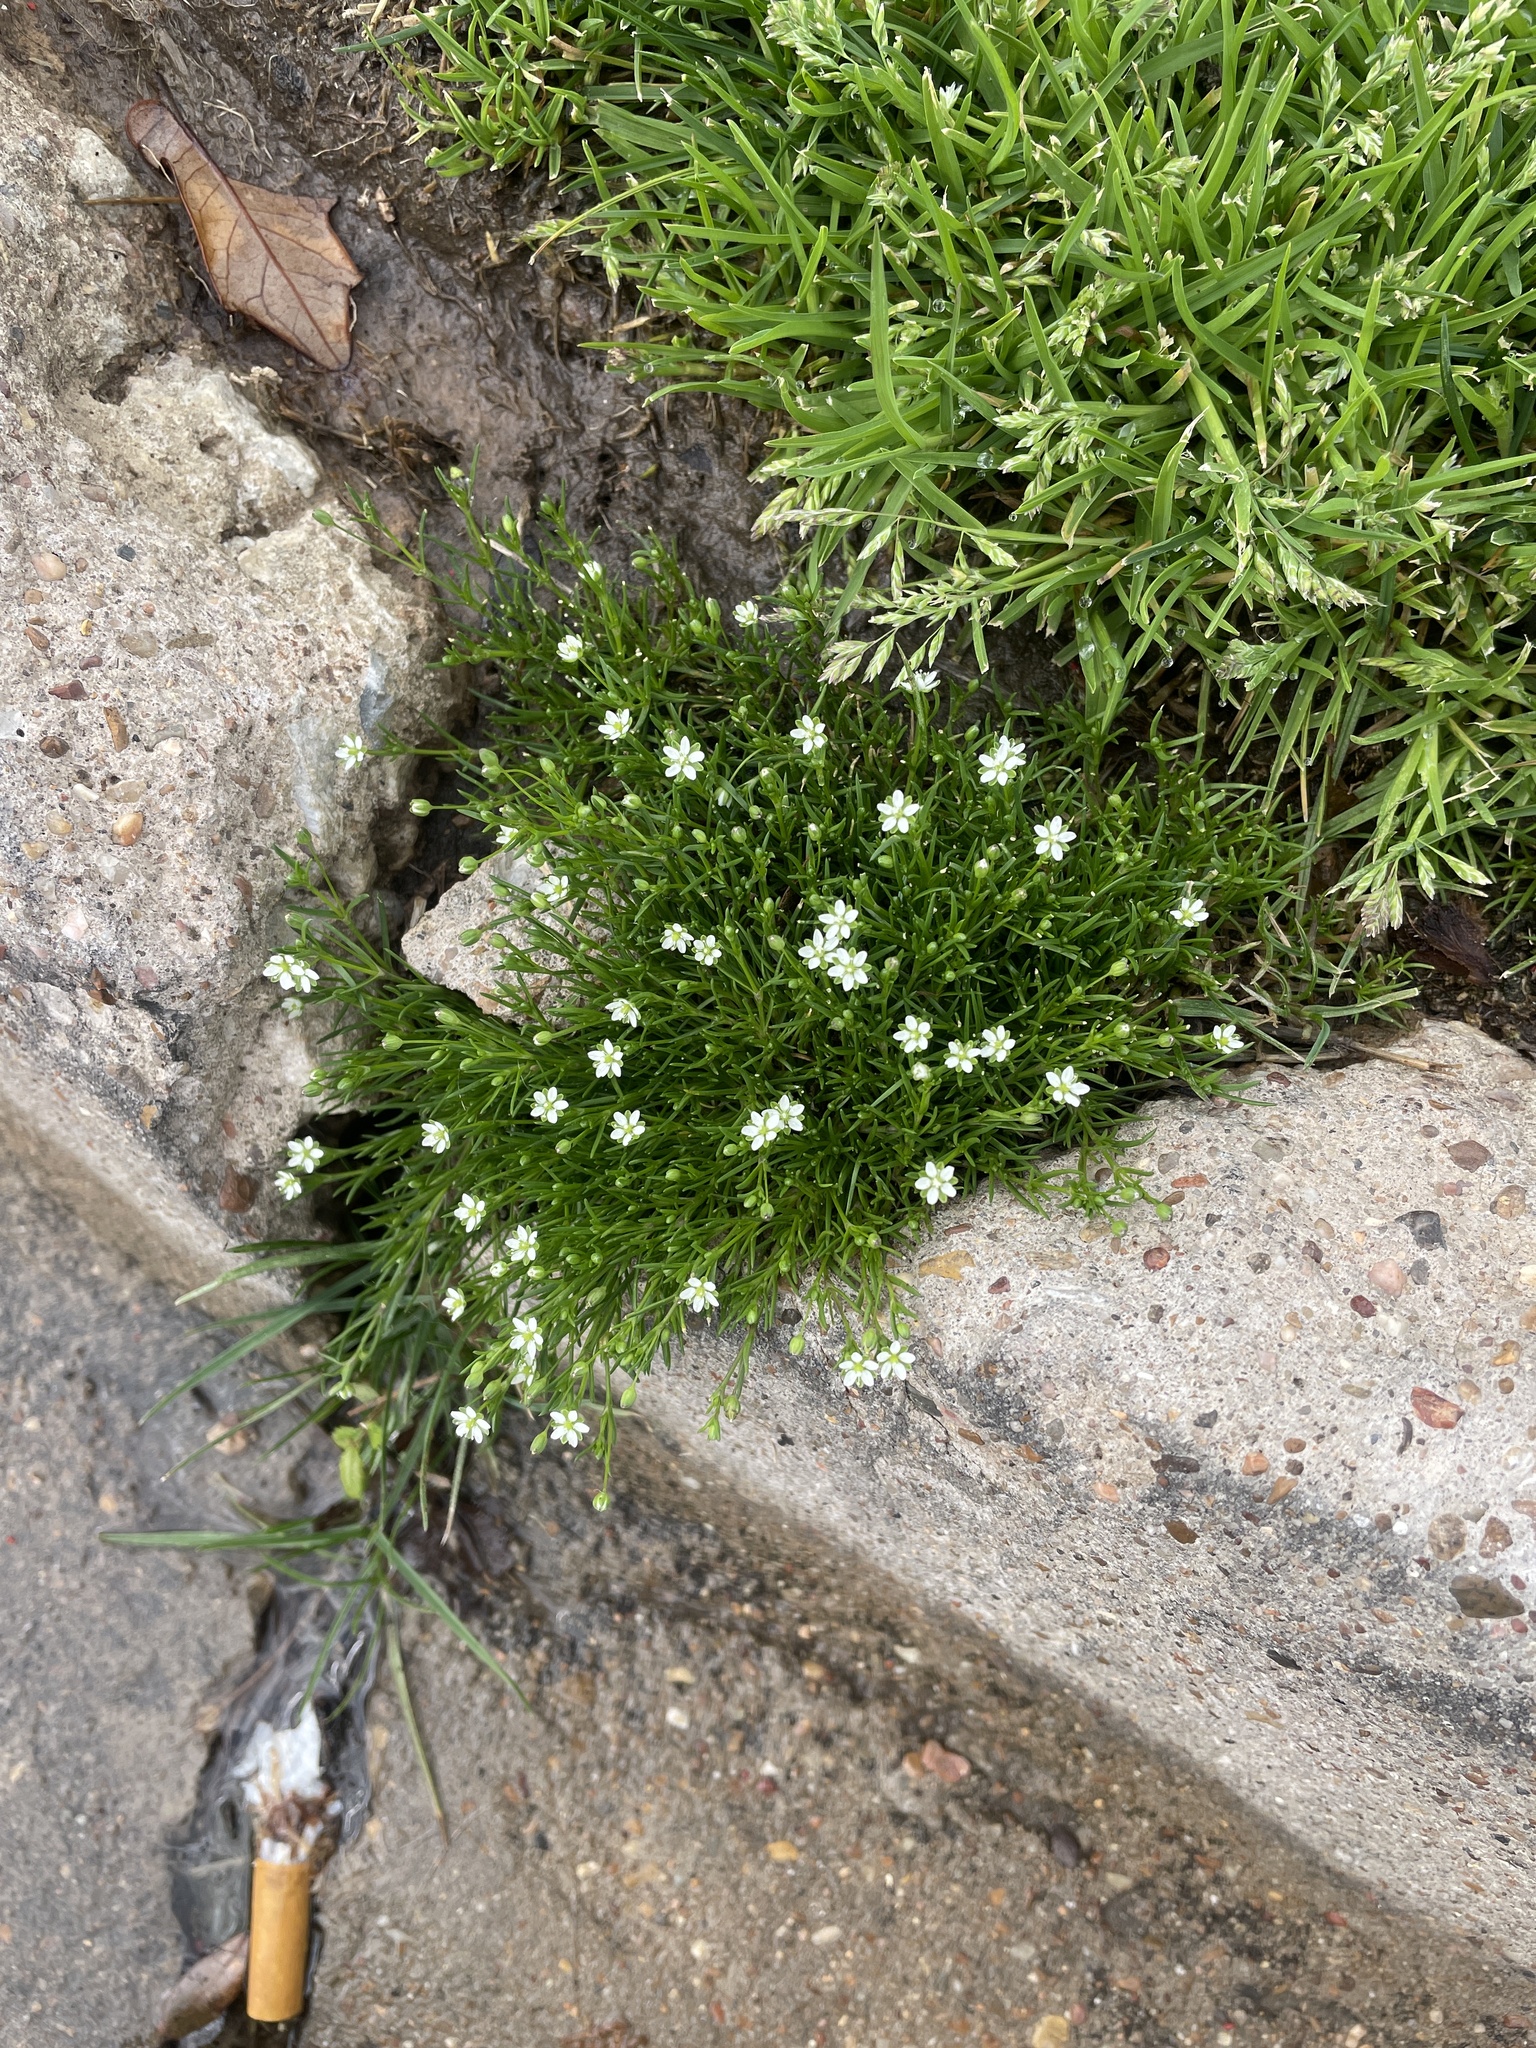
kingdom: Plantae
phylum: Tracheophyta
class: Magnoliopsida
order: Caryophyllales
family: Caryophyllaceae
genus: Sagina
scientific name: Sagina decumbens
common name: Decumbent pearlwort
